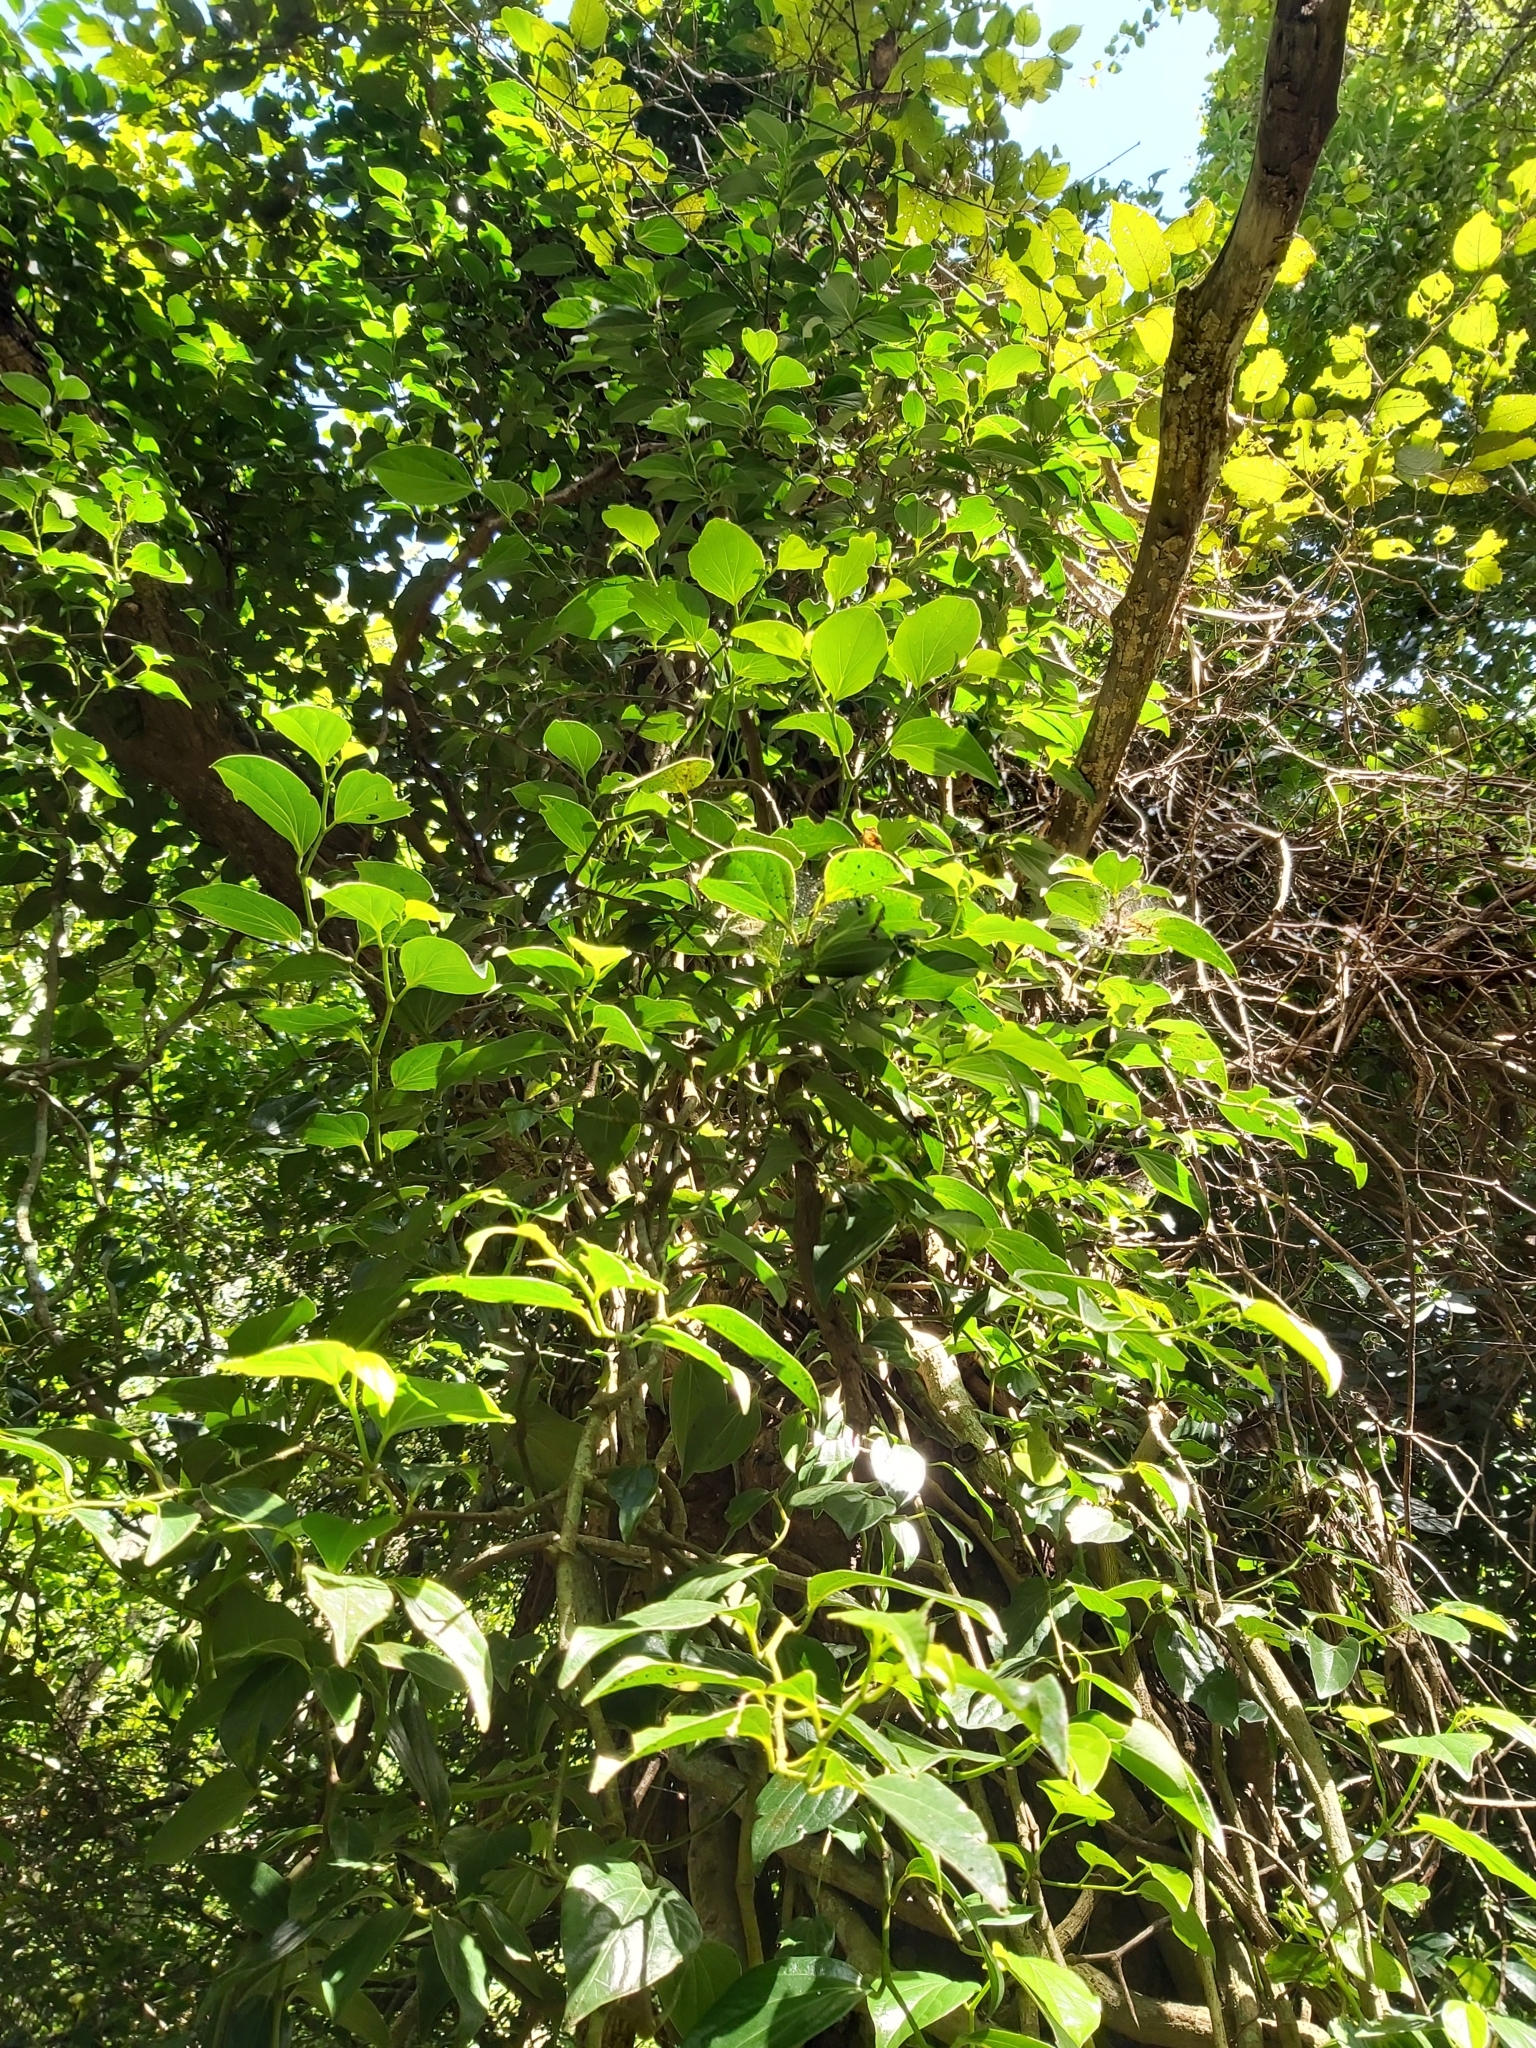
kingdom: Plantae
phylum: Tracheophyta
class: Magnoliopsida
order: Piperales
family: Piperaceae
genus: Piper
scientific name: Piper hederaceum
